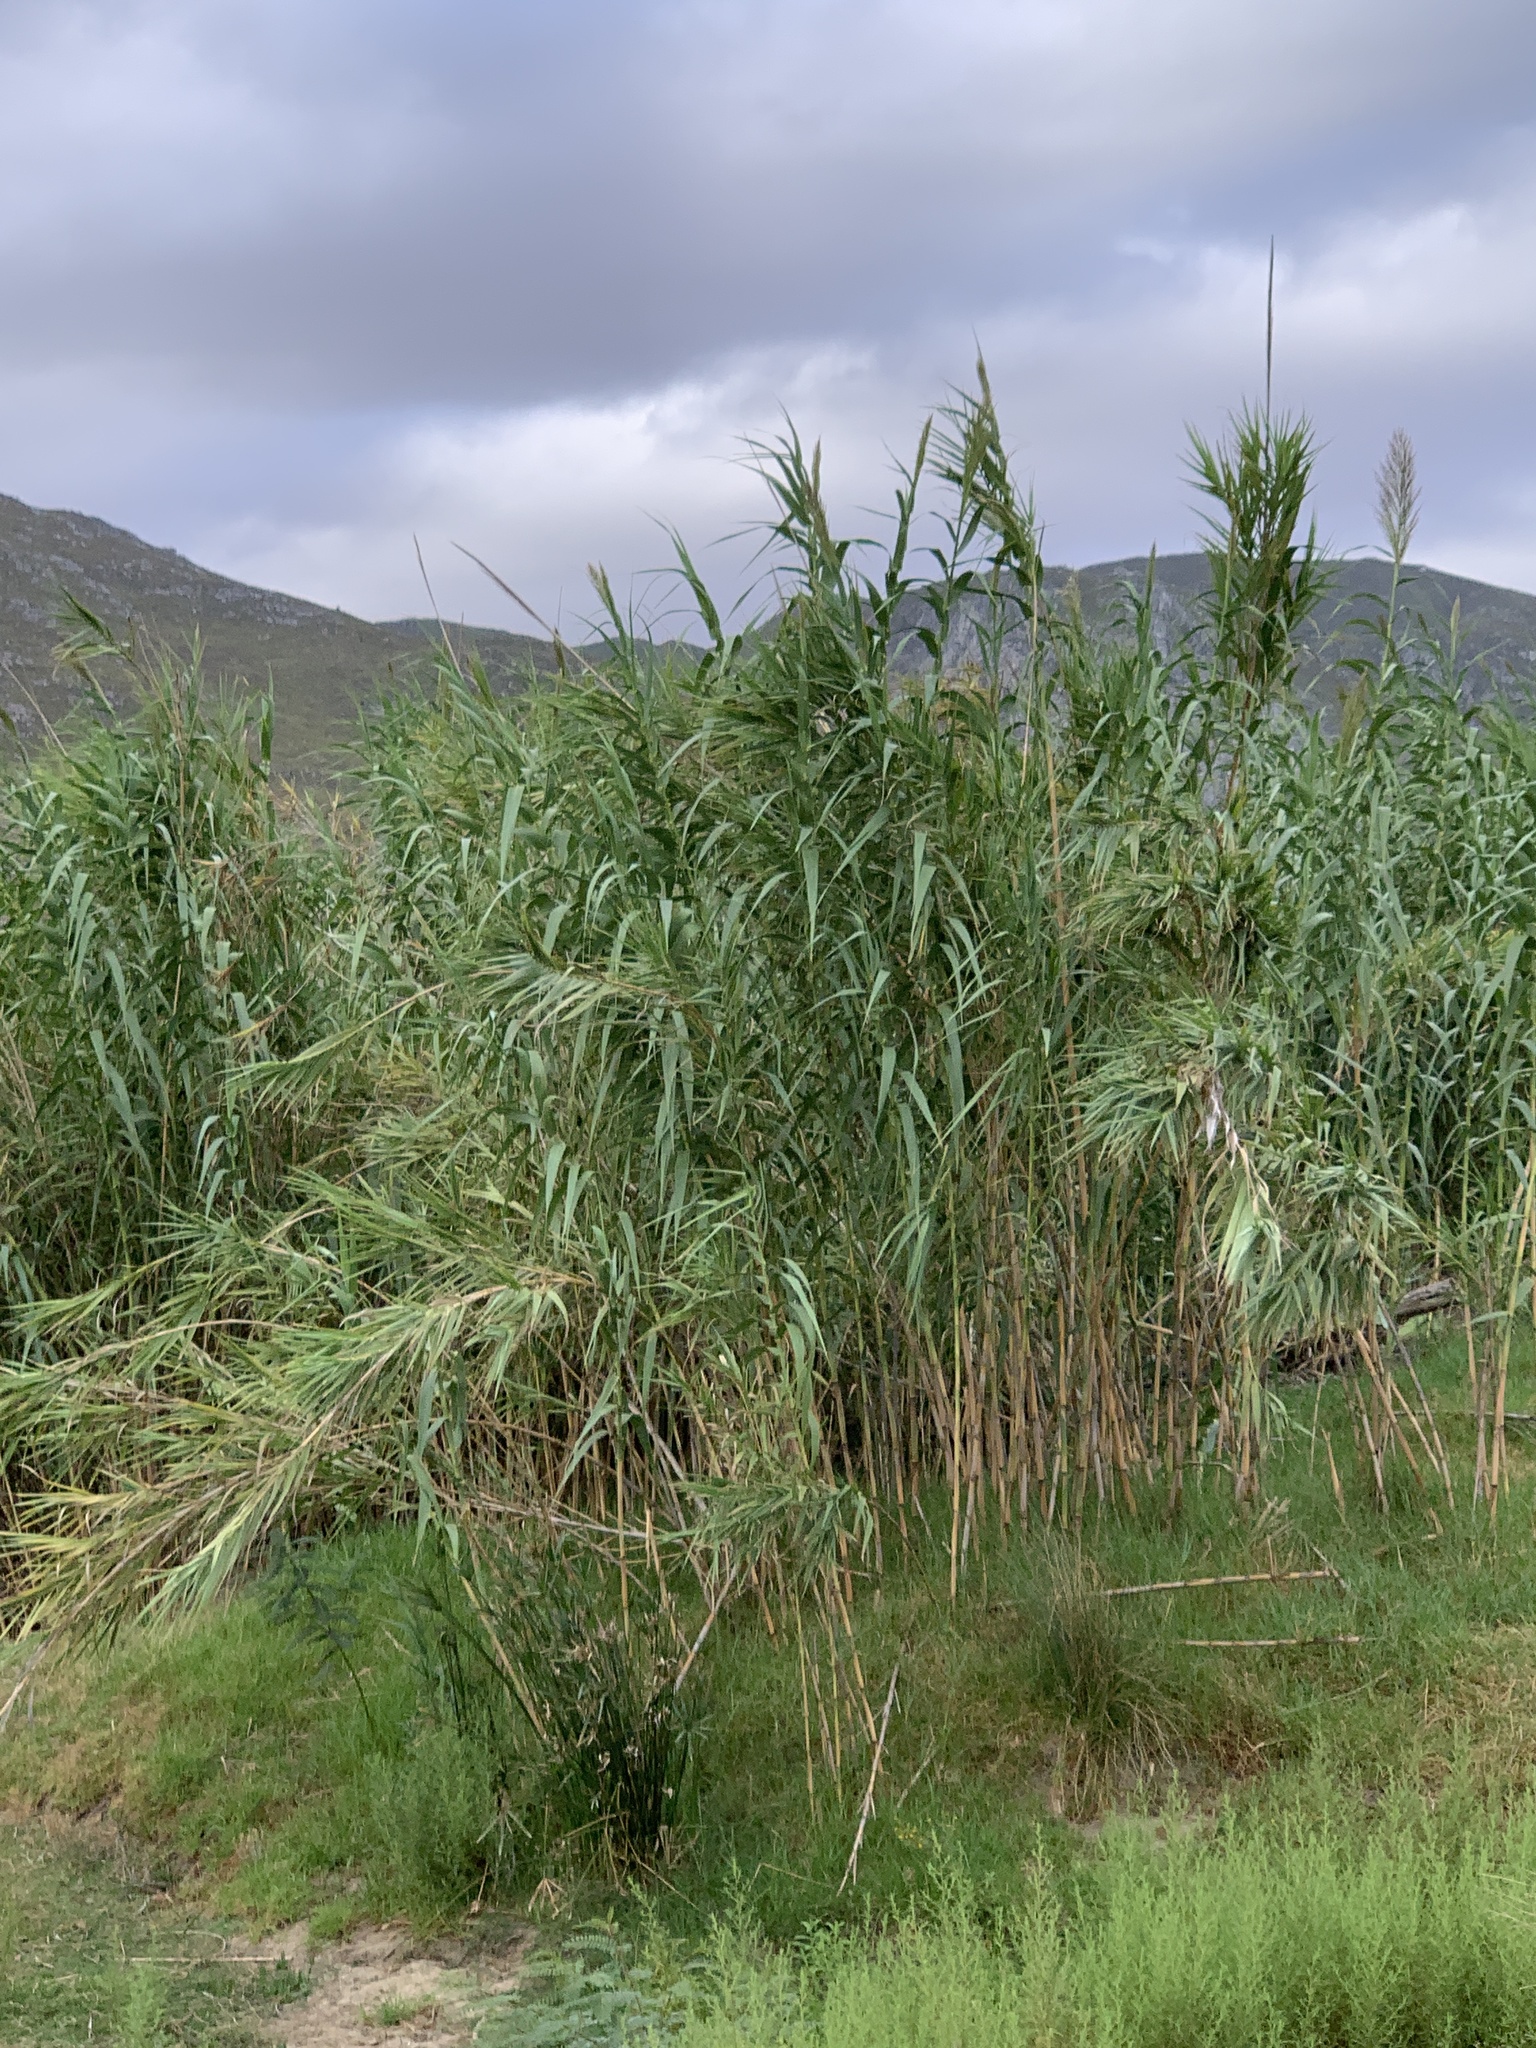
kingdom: Plantae
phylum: Tracheophyta
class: Liliopsida
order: Poales
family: Poaceae
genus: Arundo
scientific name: Arundo donax
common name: Giant reed
